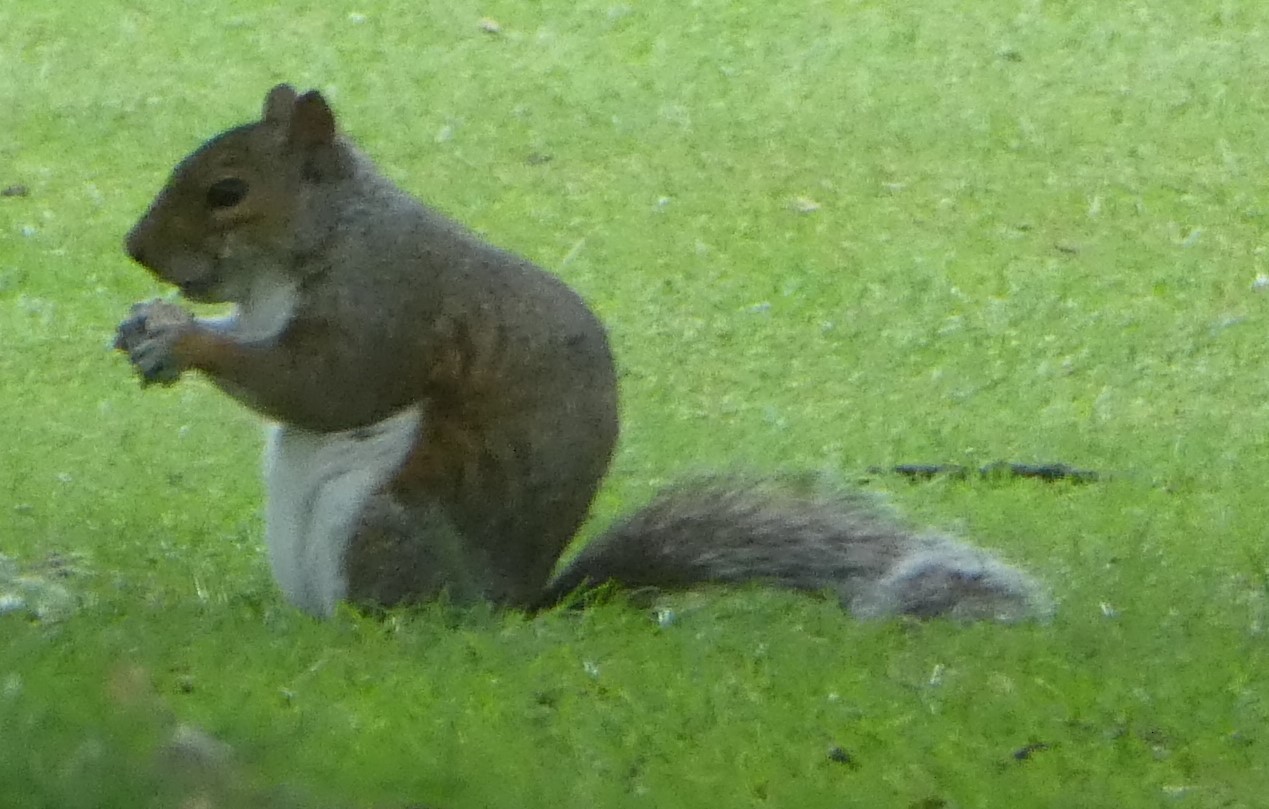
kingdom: Animalia
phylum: Chordata
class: Mammalia
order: Rodentia
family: Sciuridae
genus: Sciurus
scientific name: Sciurus carolinensis
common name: Eastern gray squirrel
